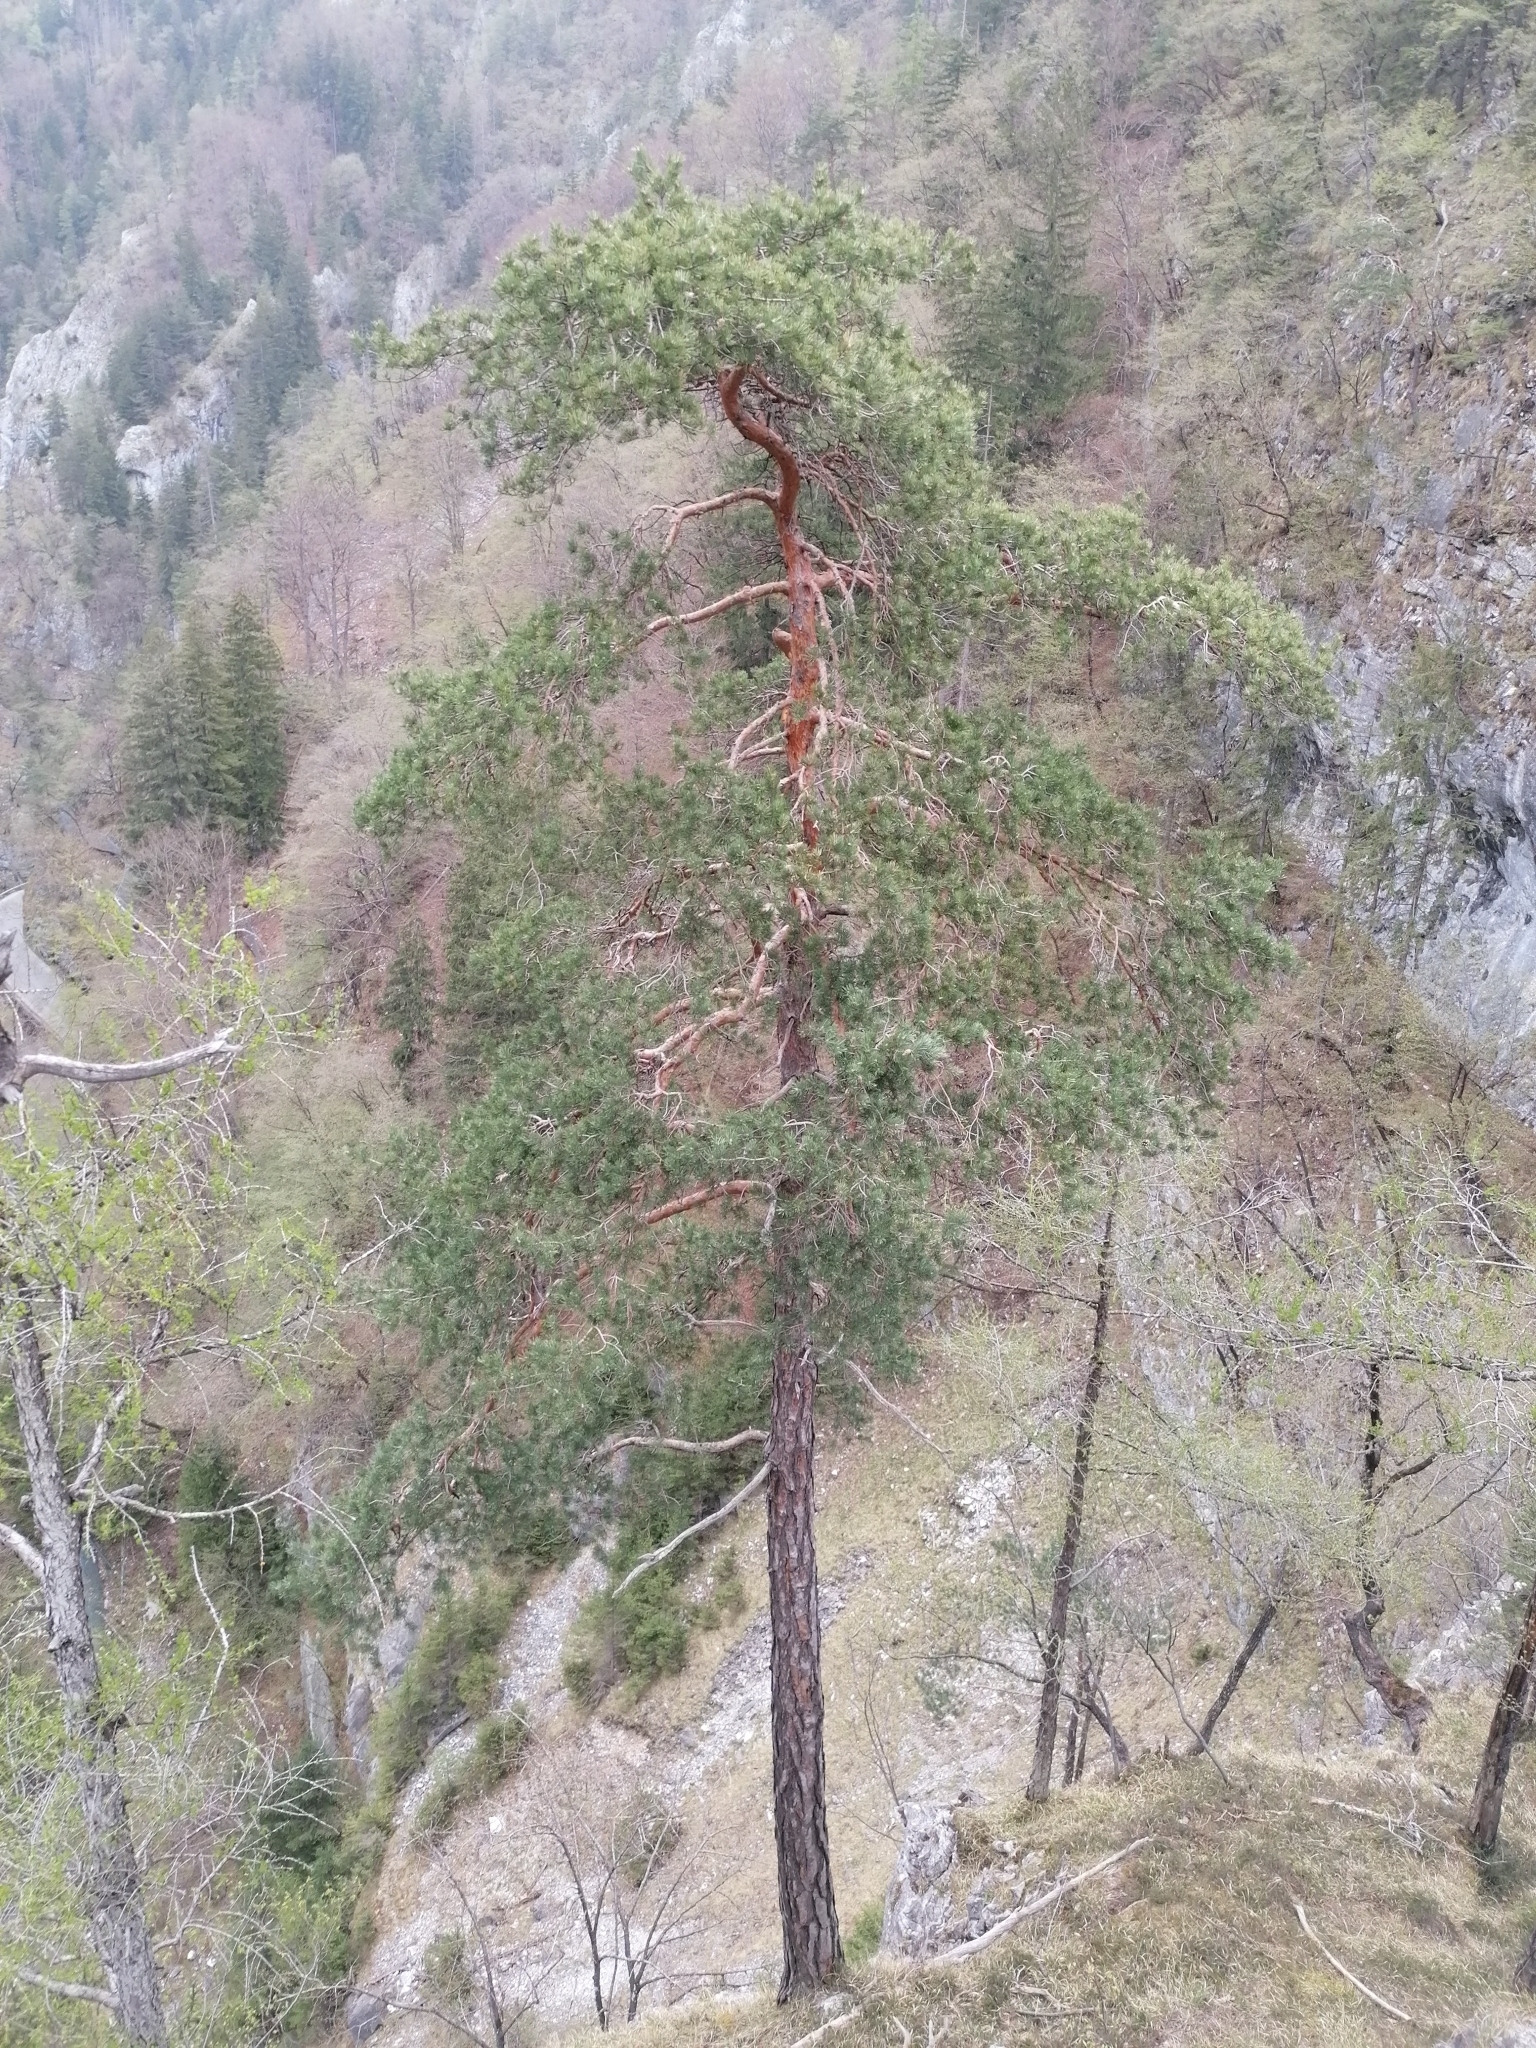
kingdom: Plantae
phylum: Tracheophyta
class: Pinopsida
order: Pinales
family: Pinaceae
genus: Pinus
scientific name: Pinus sylvestris
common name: Scots pine
